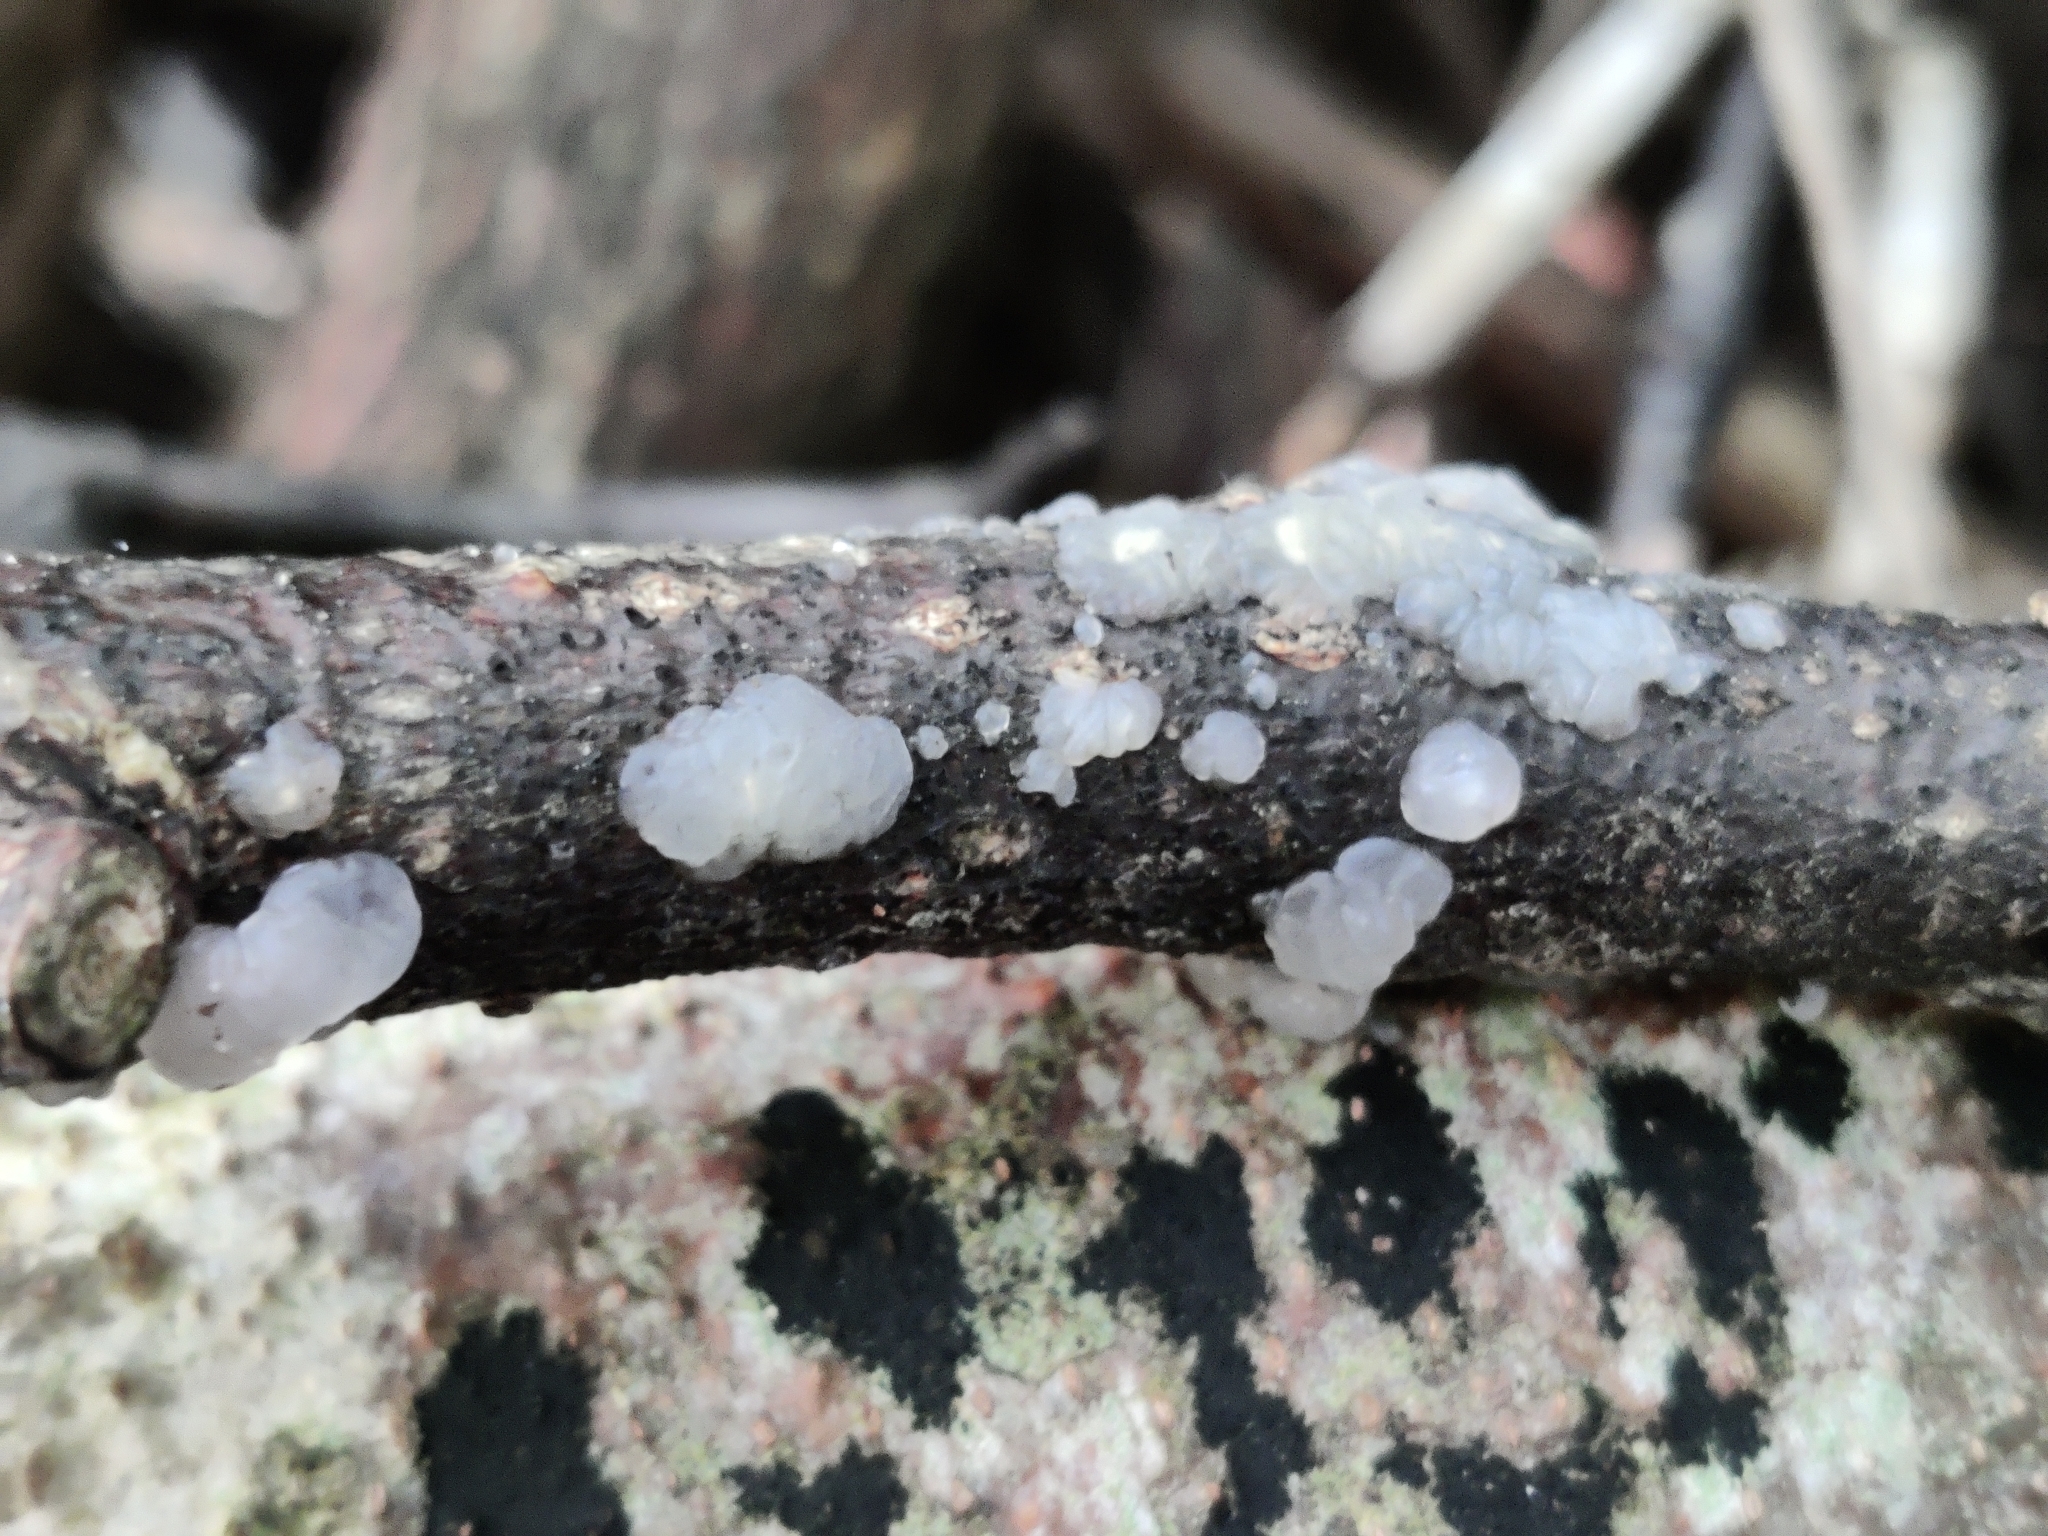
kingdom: Fungi
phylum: Basidiomycota
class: Agaricomycetes
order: Auriculariales
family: Hyaloriaceae
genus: Myxarium
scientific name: Myxarium nucleatum
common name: Crystal brain fungus
